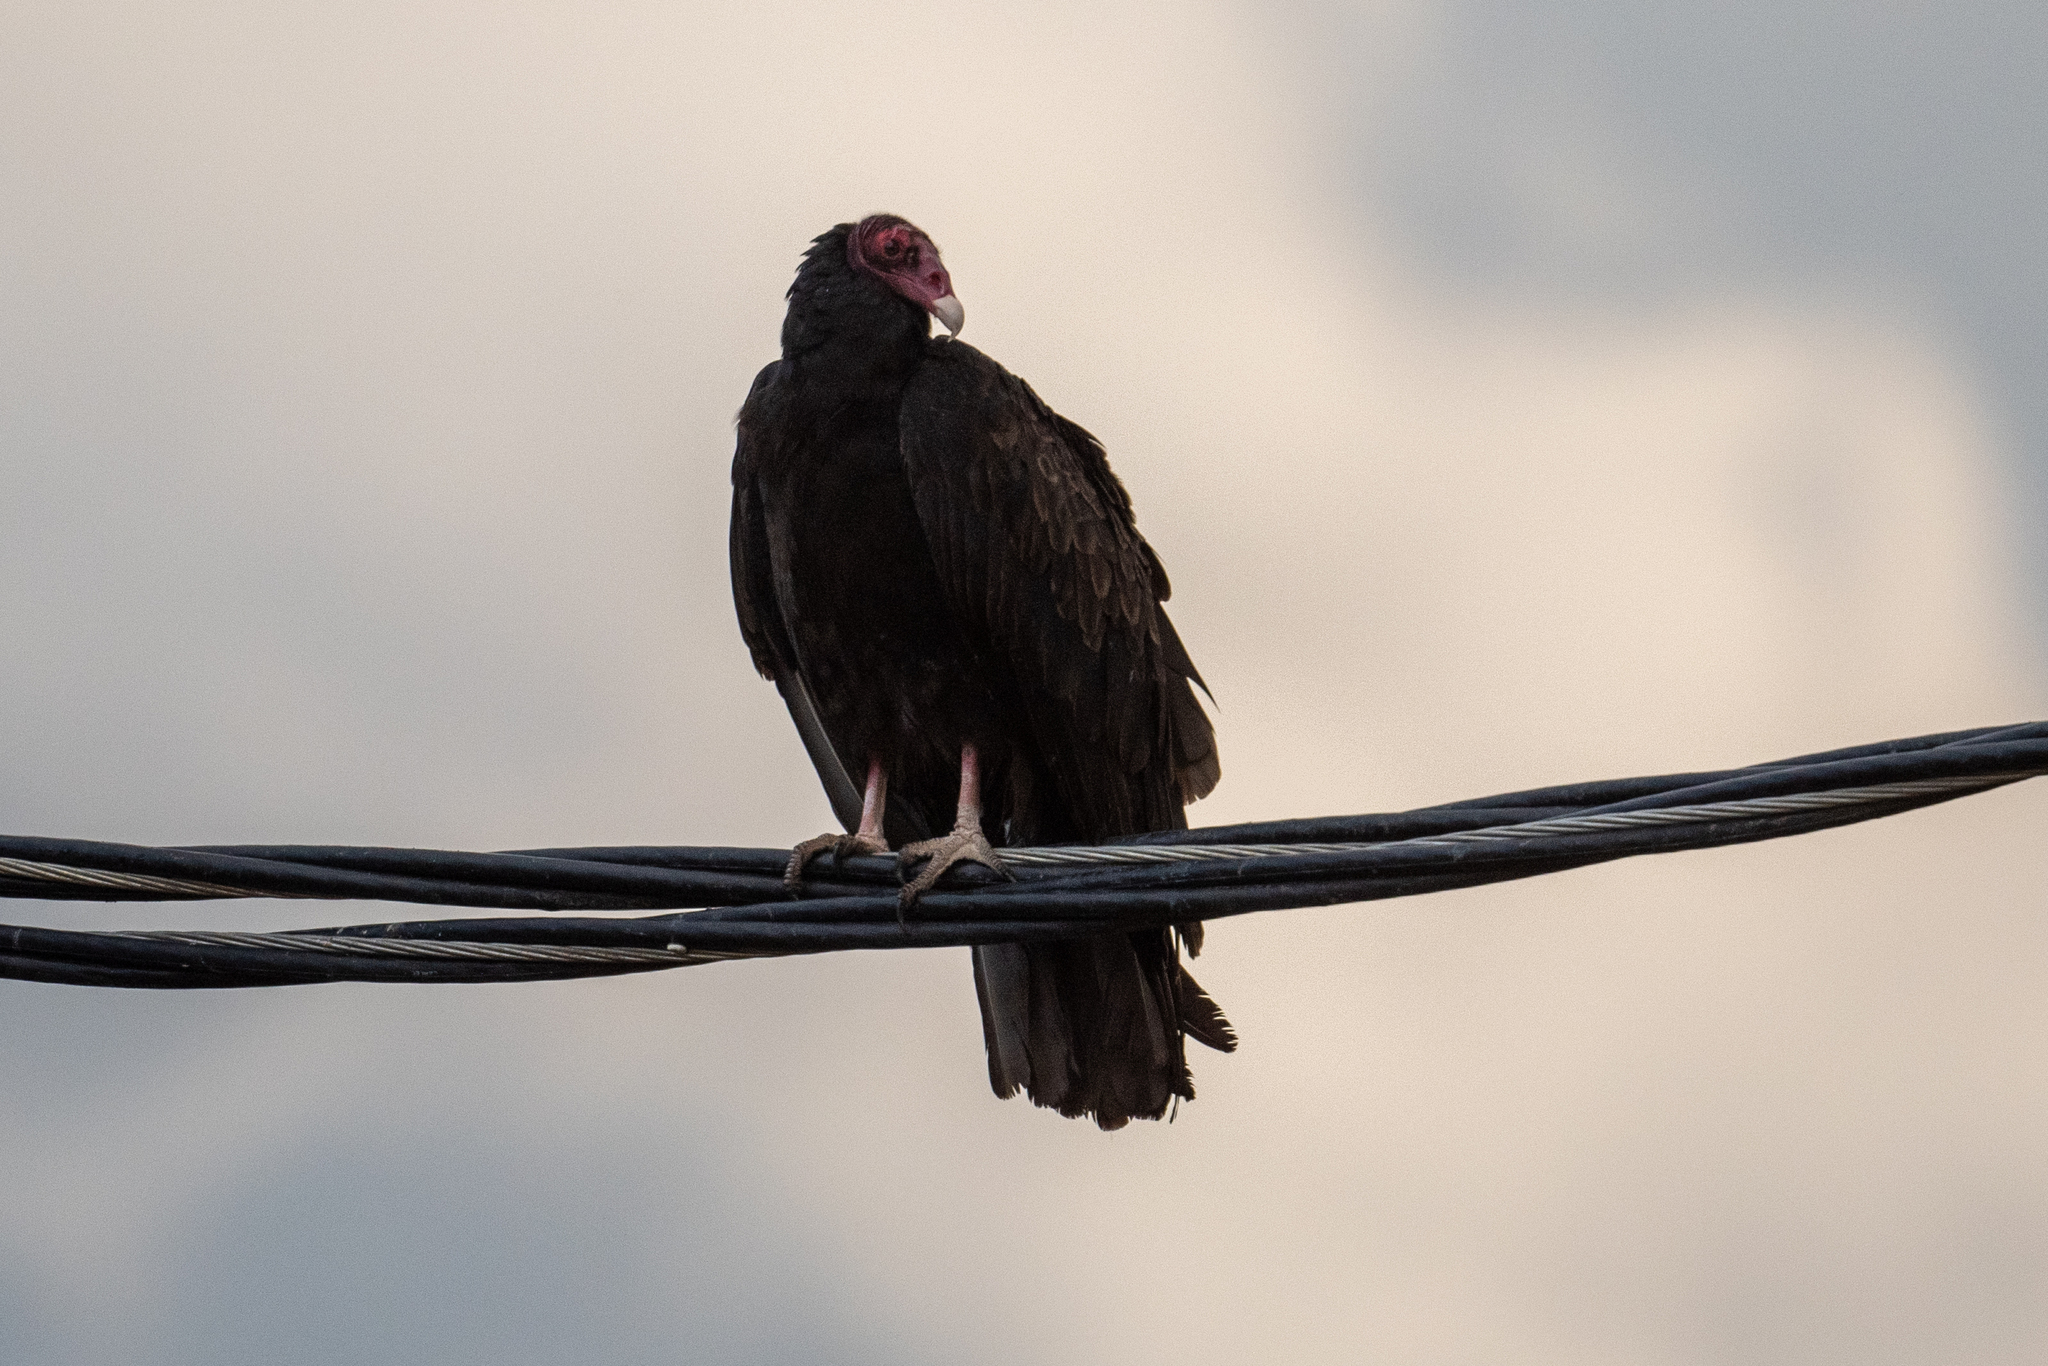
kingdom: Animalia
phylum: Chordata
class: Aves
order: Accipitriformes
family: Cathartidae
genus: Cathartes
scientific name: Cathartes aura
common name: Turkey vulture
